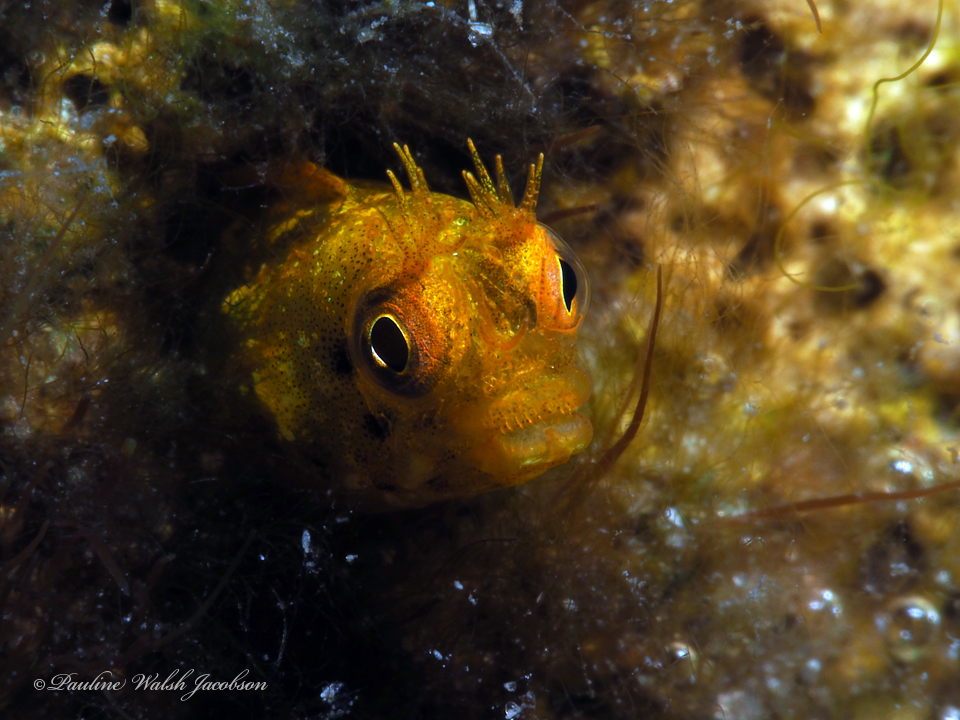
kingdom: Animalia
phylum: Chordata
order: Perciformes
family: Chaenopsidae
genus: Acanthemblemaria
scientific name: Acanthemblemaria aspera
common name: Roughhead blenny
